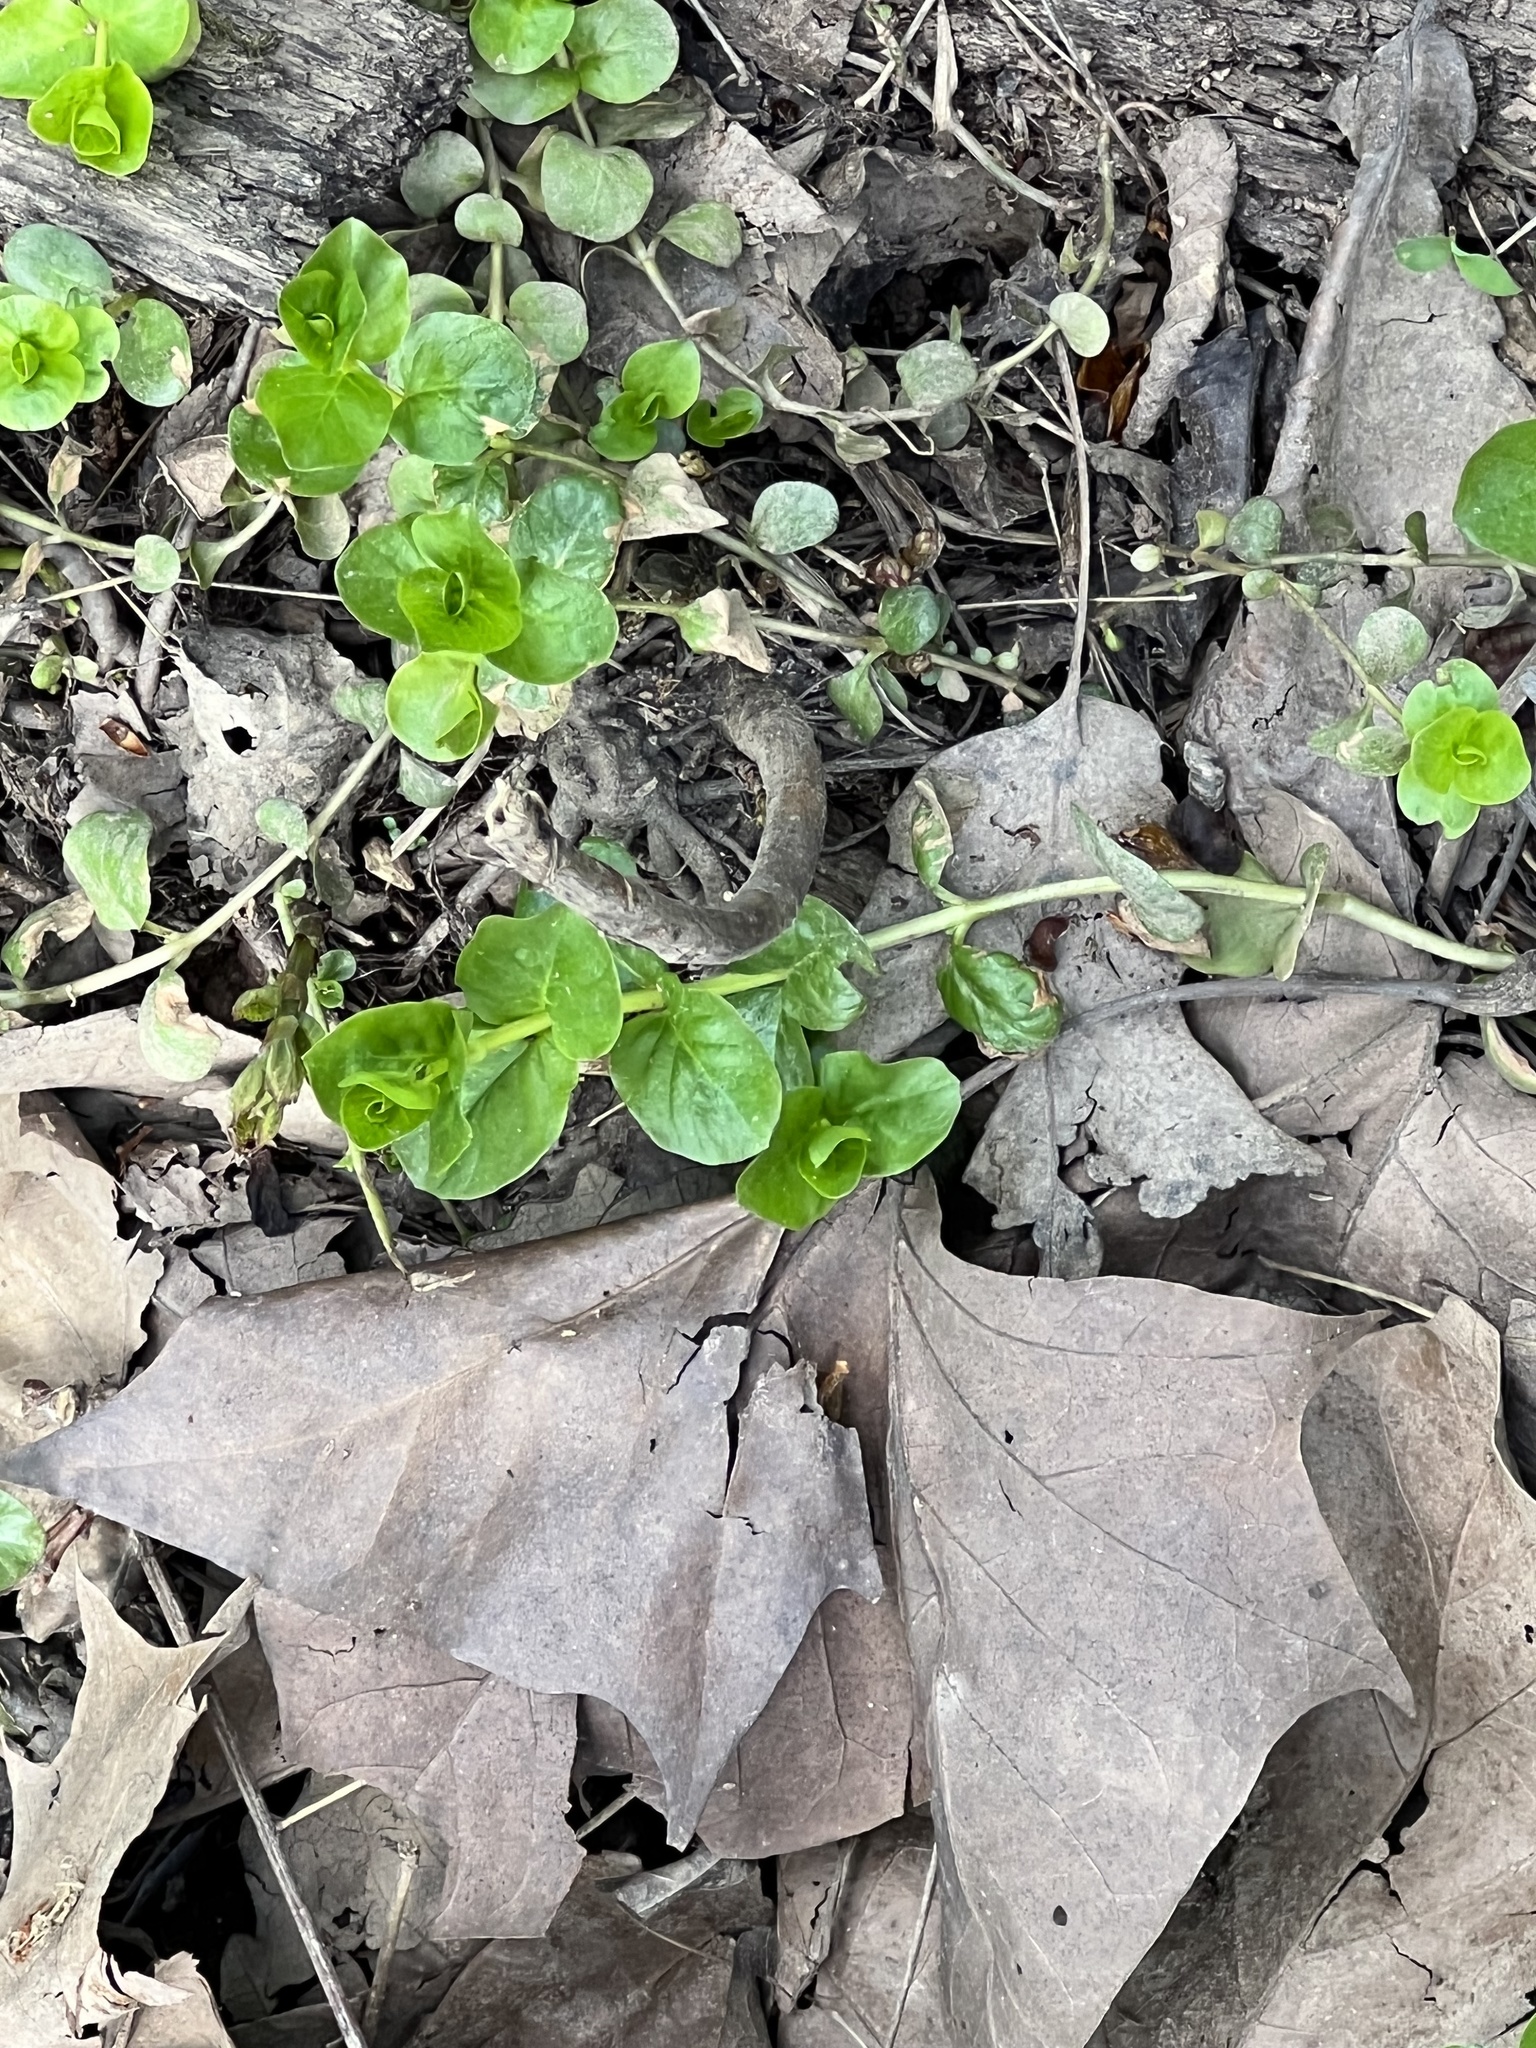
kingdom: Plantae
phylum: Tracheophyta
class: Magnoliopsida
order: Ericales
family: Primulaceae
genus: Lysimachia
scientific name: Lysimachia nummularia
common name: Moneywort
